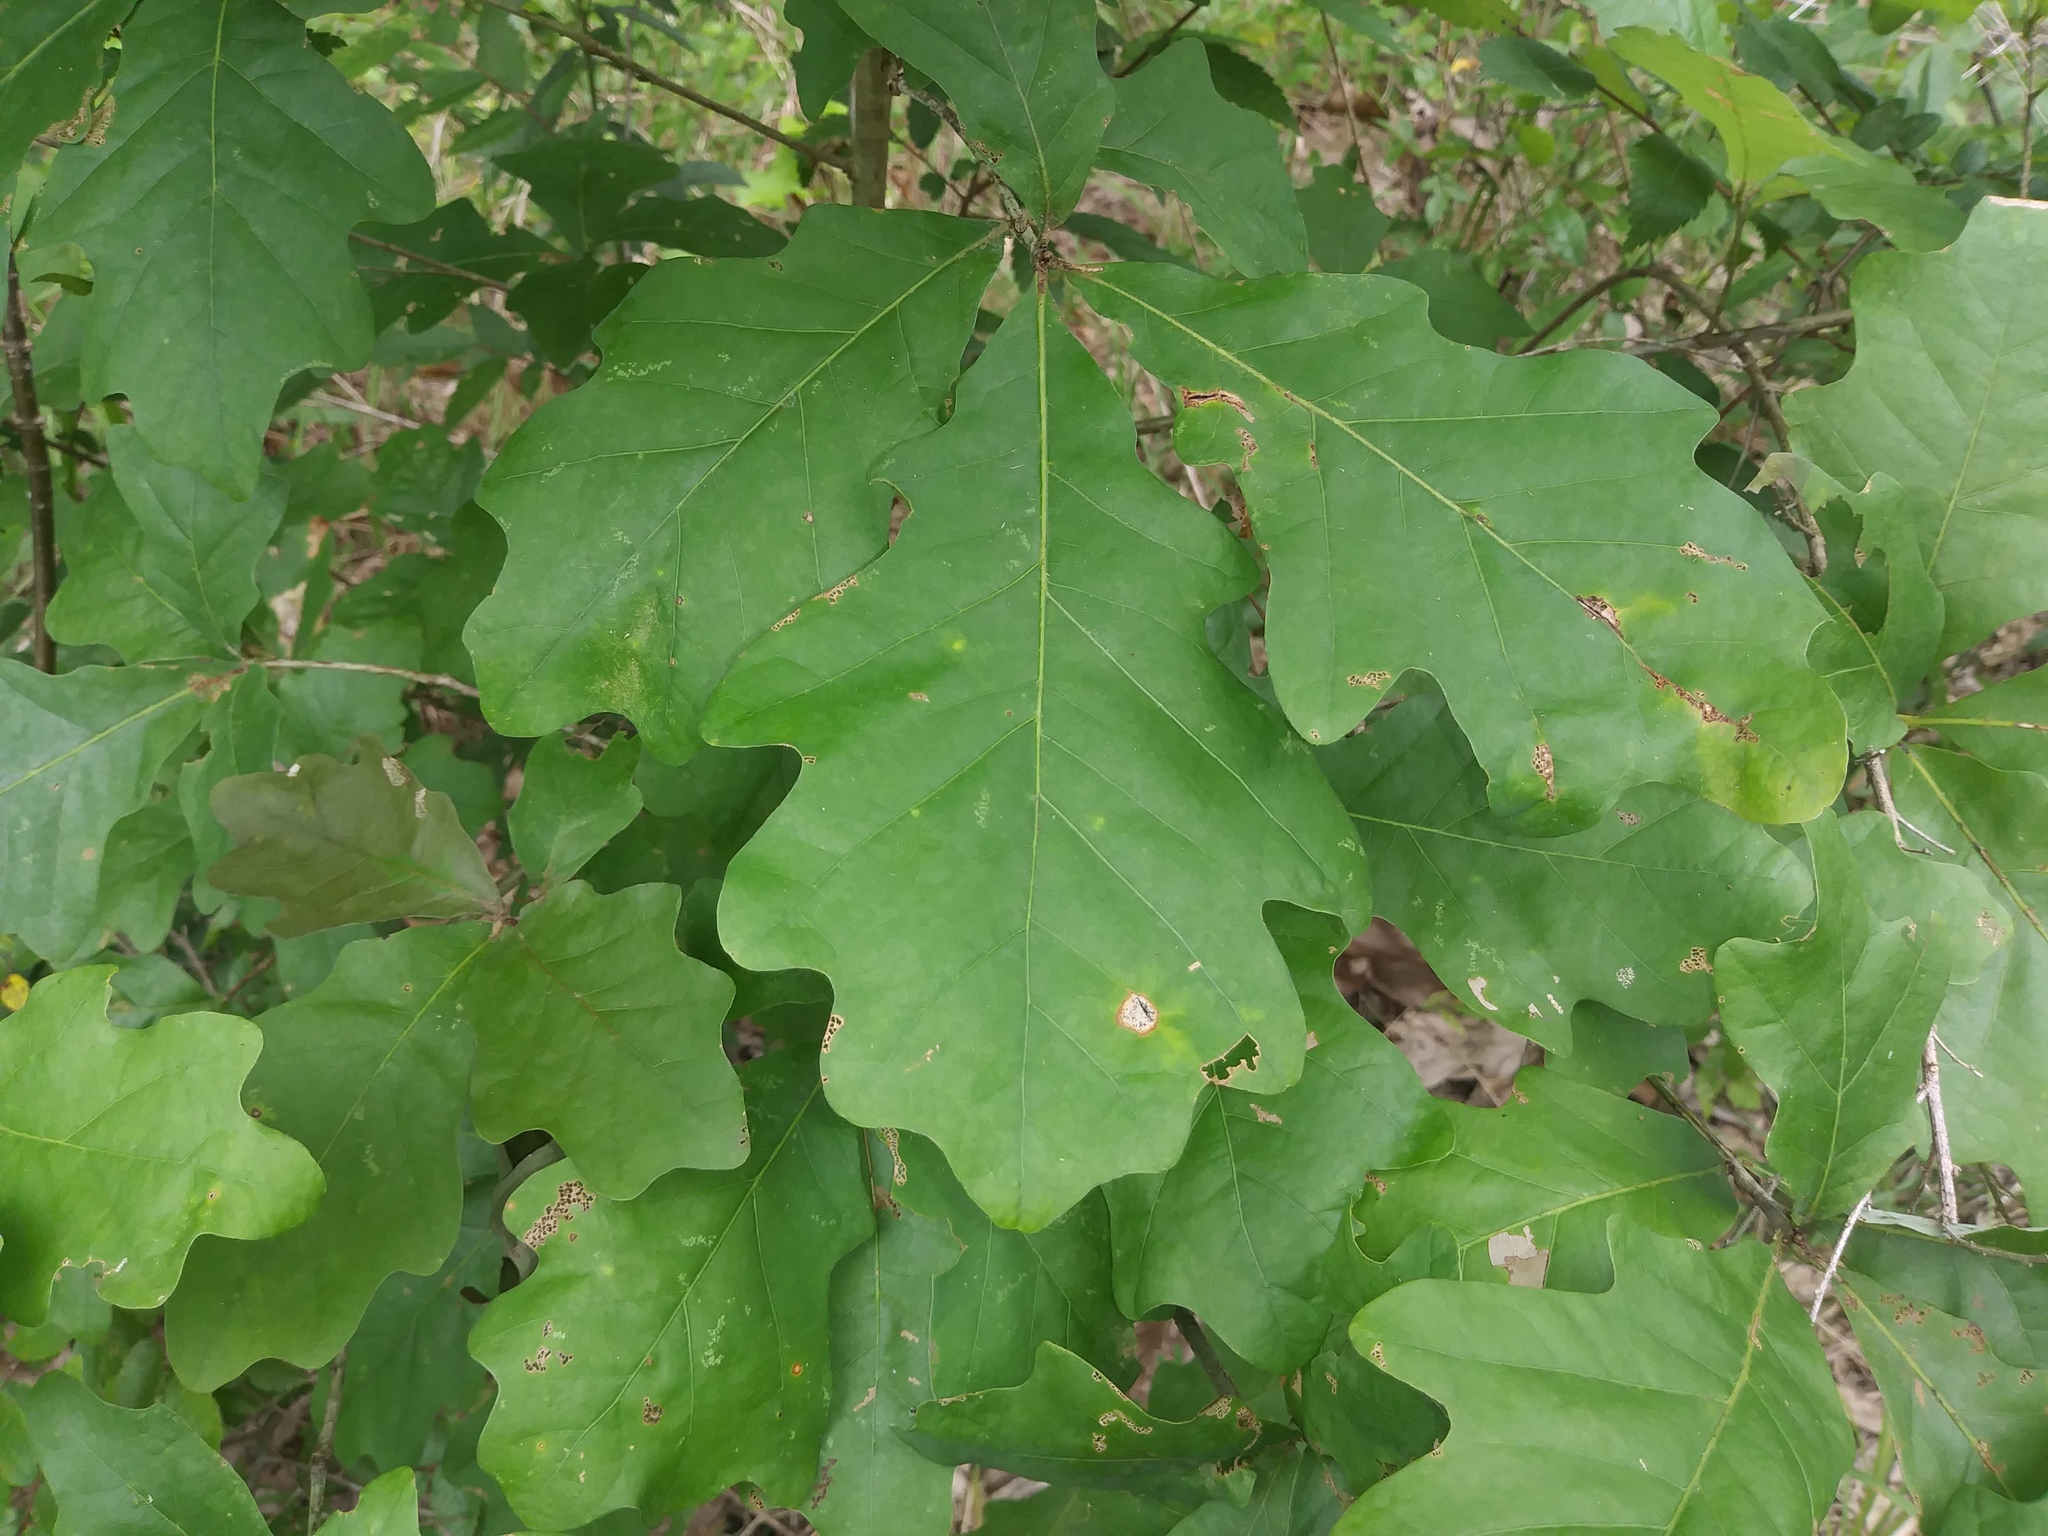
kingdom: Plantae
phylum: Tracheophyta
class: Magnoliopsida
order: Fagales
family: Fagaceae
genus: Quercus
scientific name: Quercus alba
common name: White oak
